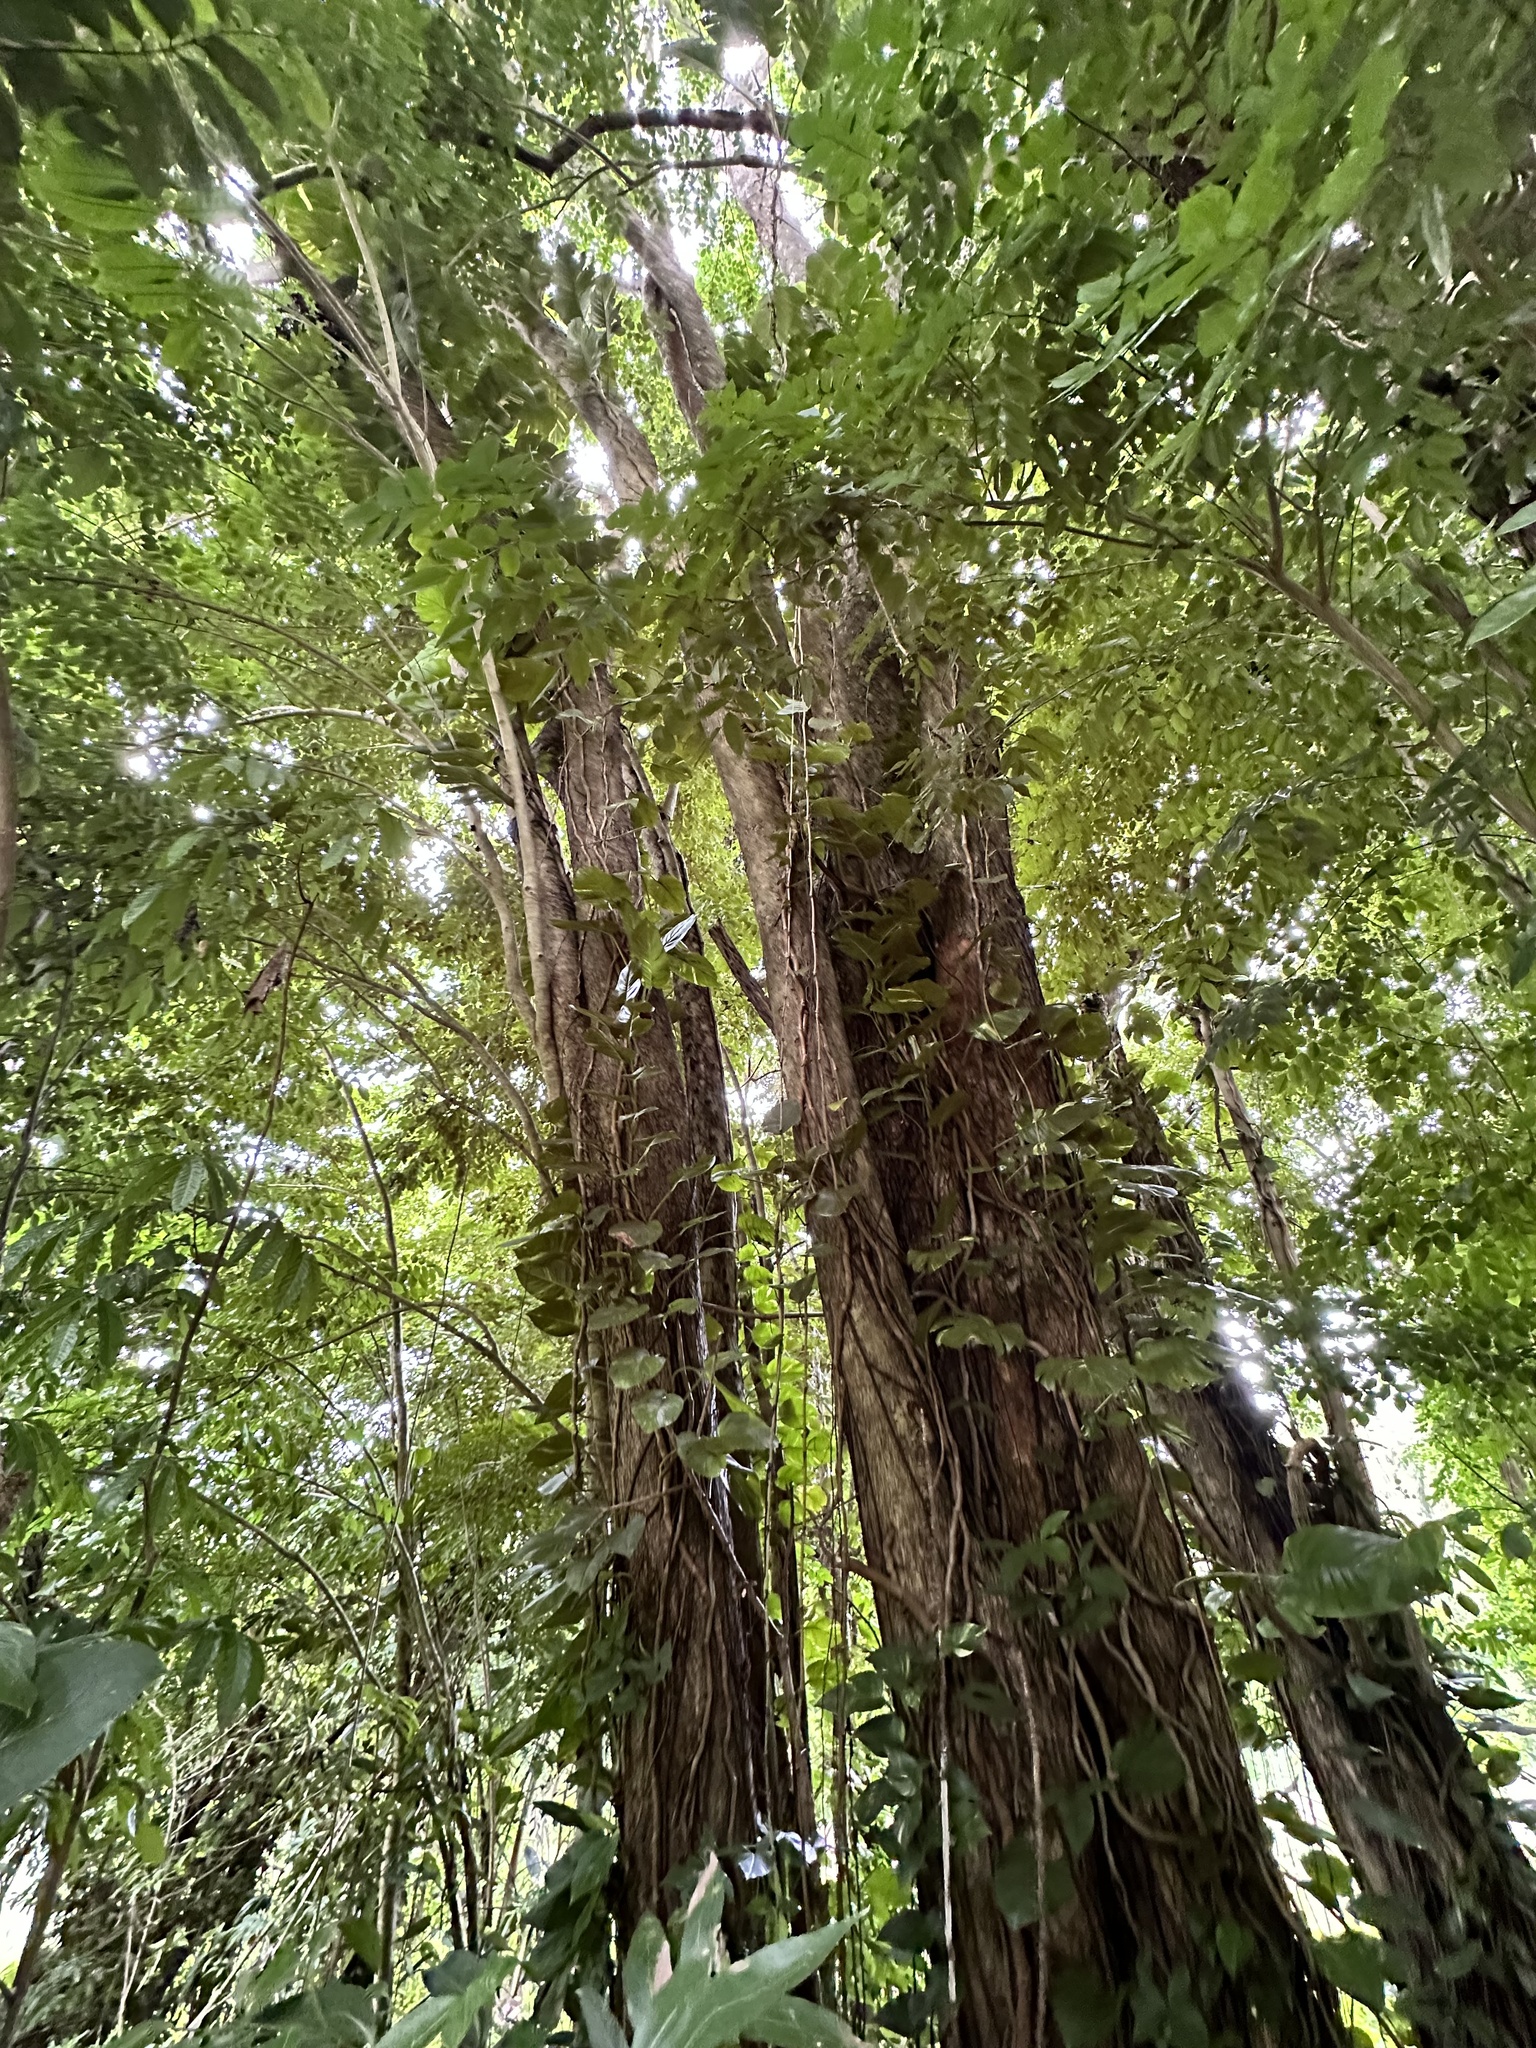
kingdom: Plantae
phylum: Tracheophyta
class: Magnoliopsida
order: Fabales
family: Fabaceae
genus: Pterocarpus
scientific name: Pterocarpus indicus
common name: Burmese rosewood
